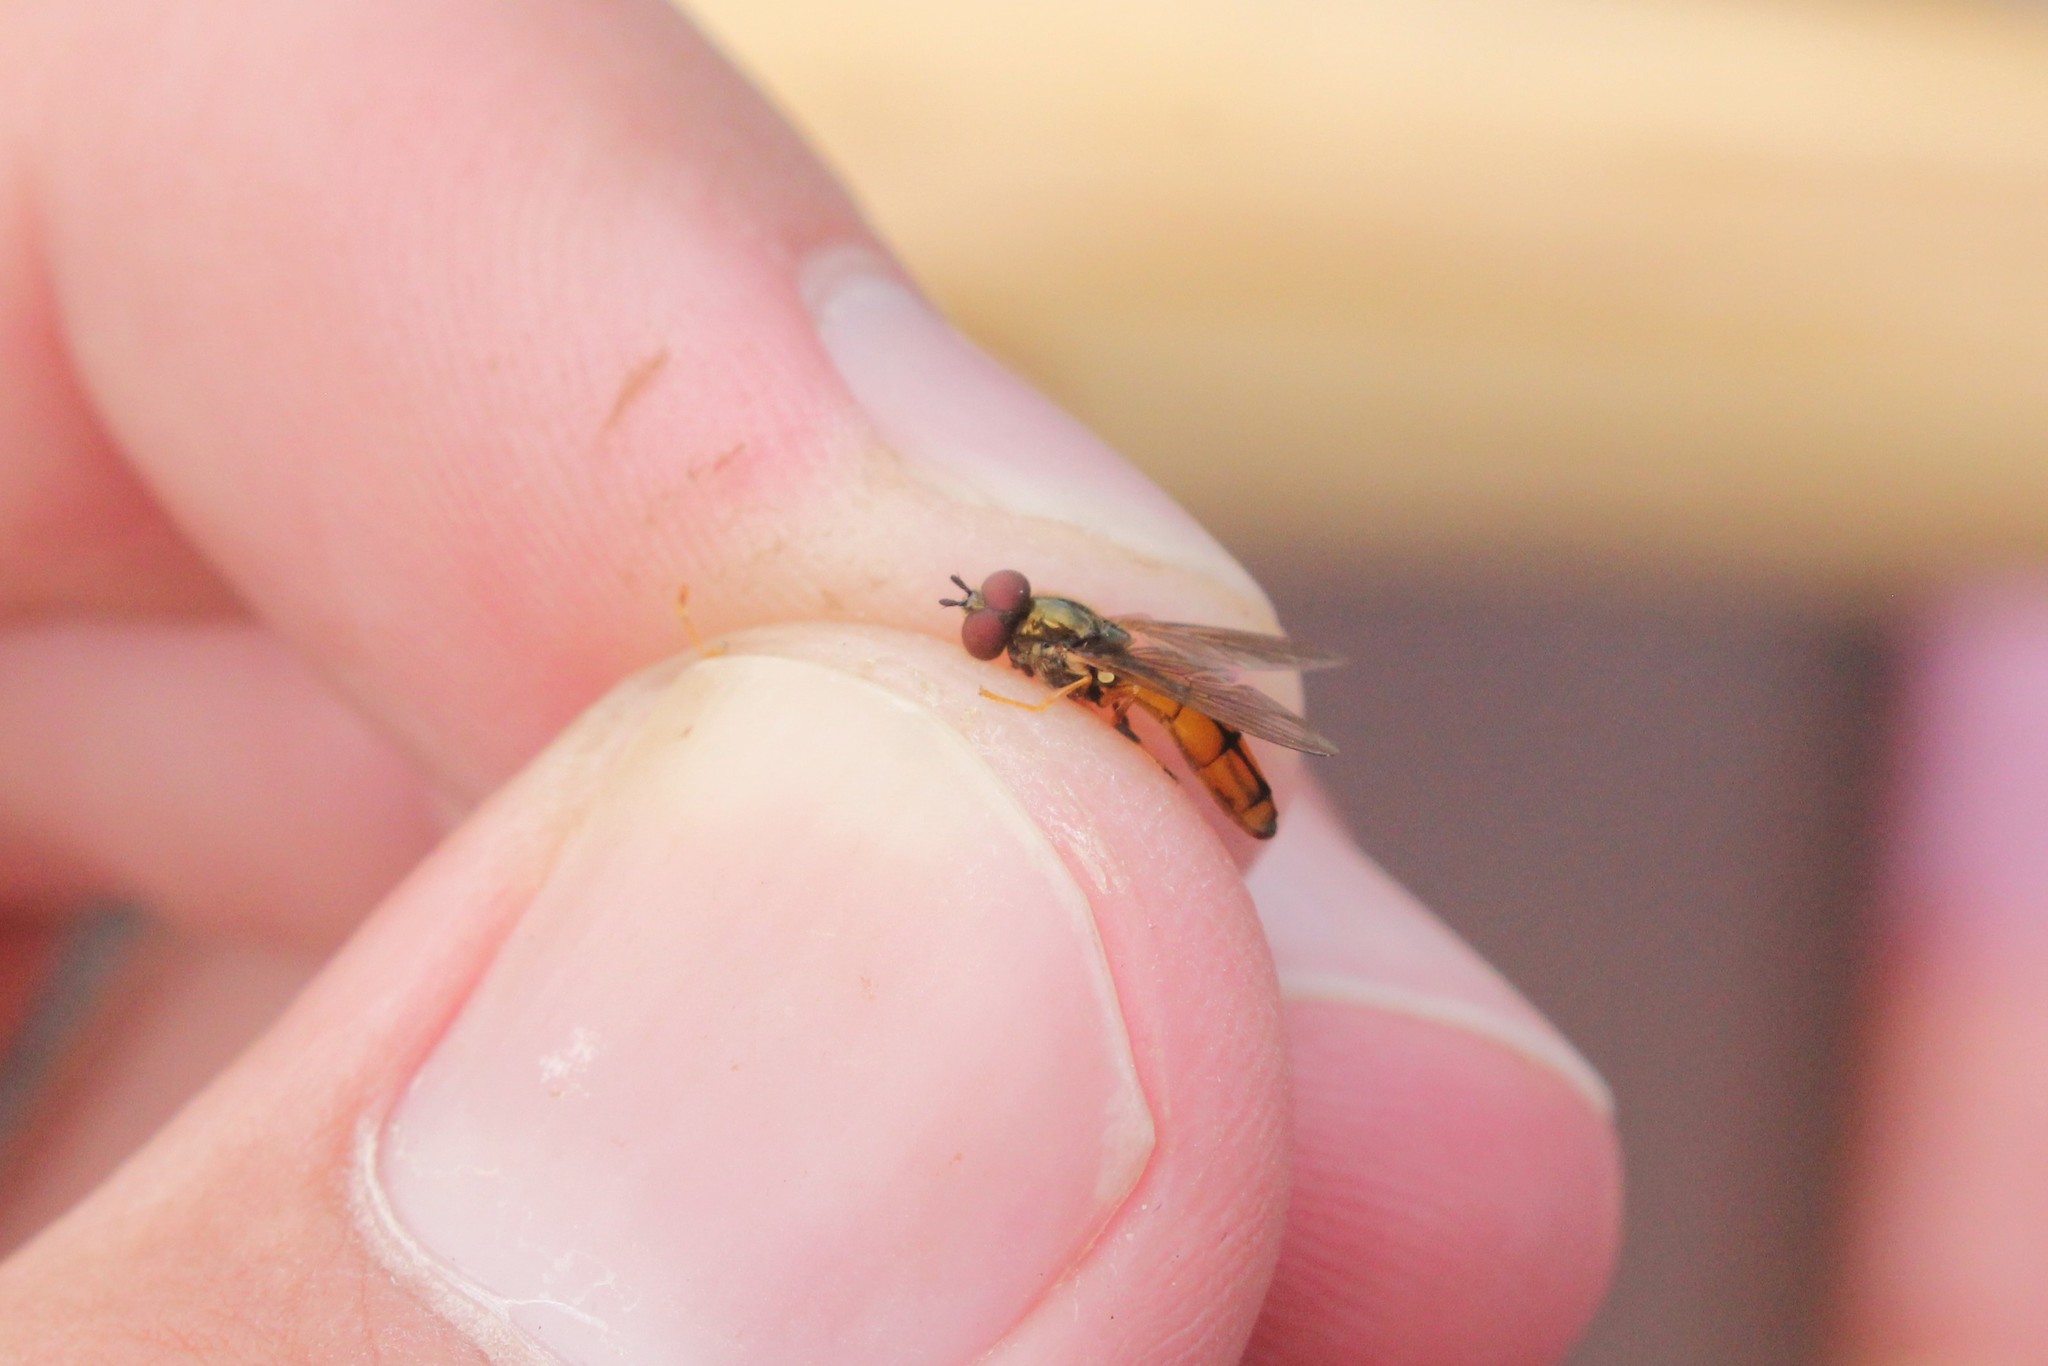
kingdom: Animalia
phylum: Arthropoda
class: Insecta
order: Diptera
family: Syrphidae
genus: Platycheirus
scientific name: Platycheirus immarginatus
